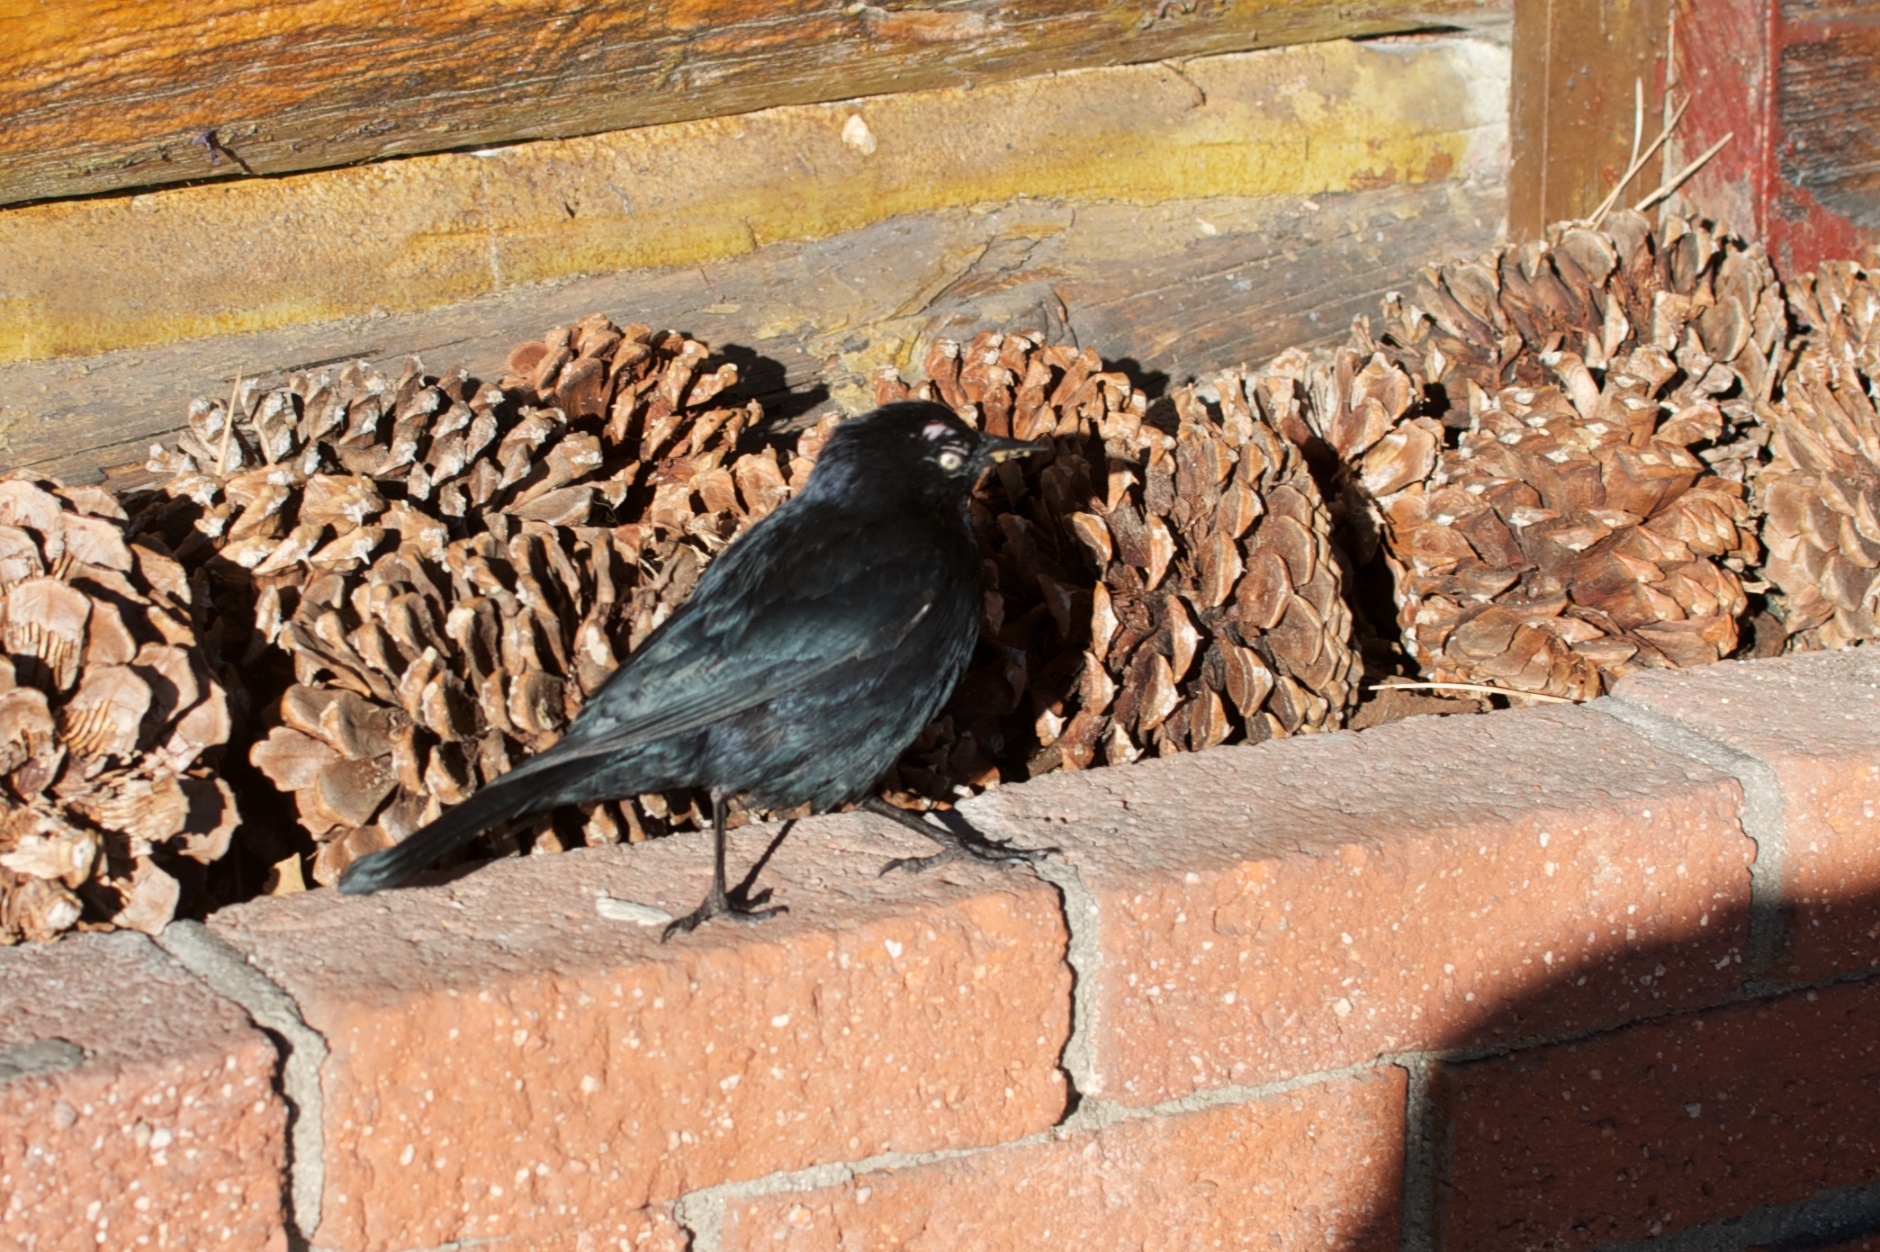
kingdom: Animalia
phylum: Chordata
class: Aves
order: Passeriformes
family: Icteridae
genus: Euphagus
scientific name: Euphagus cyanocephalus
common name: Brewer's blackbird
